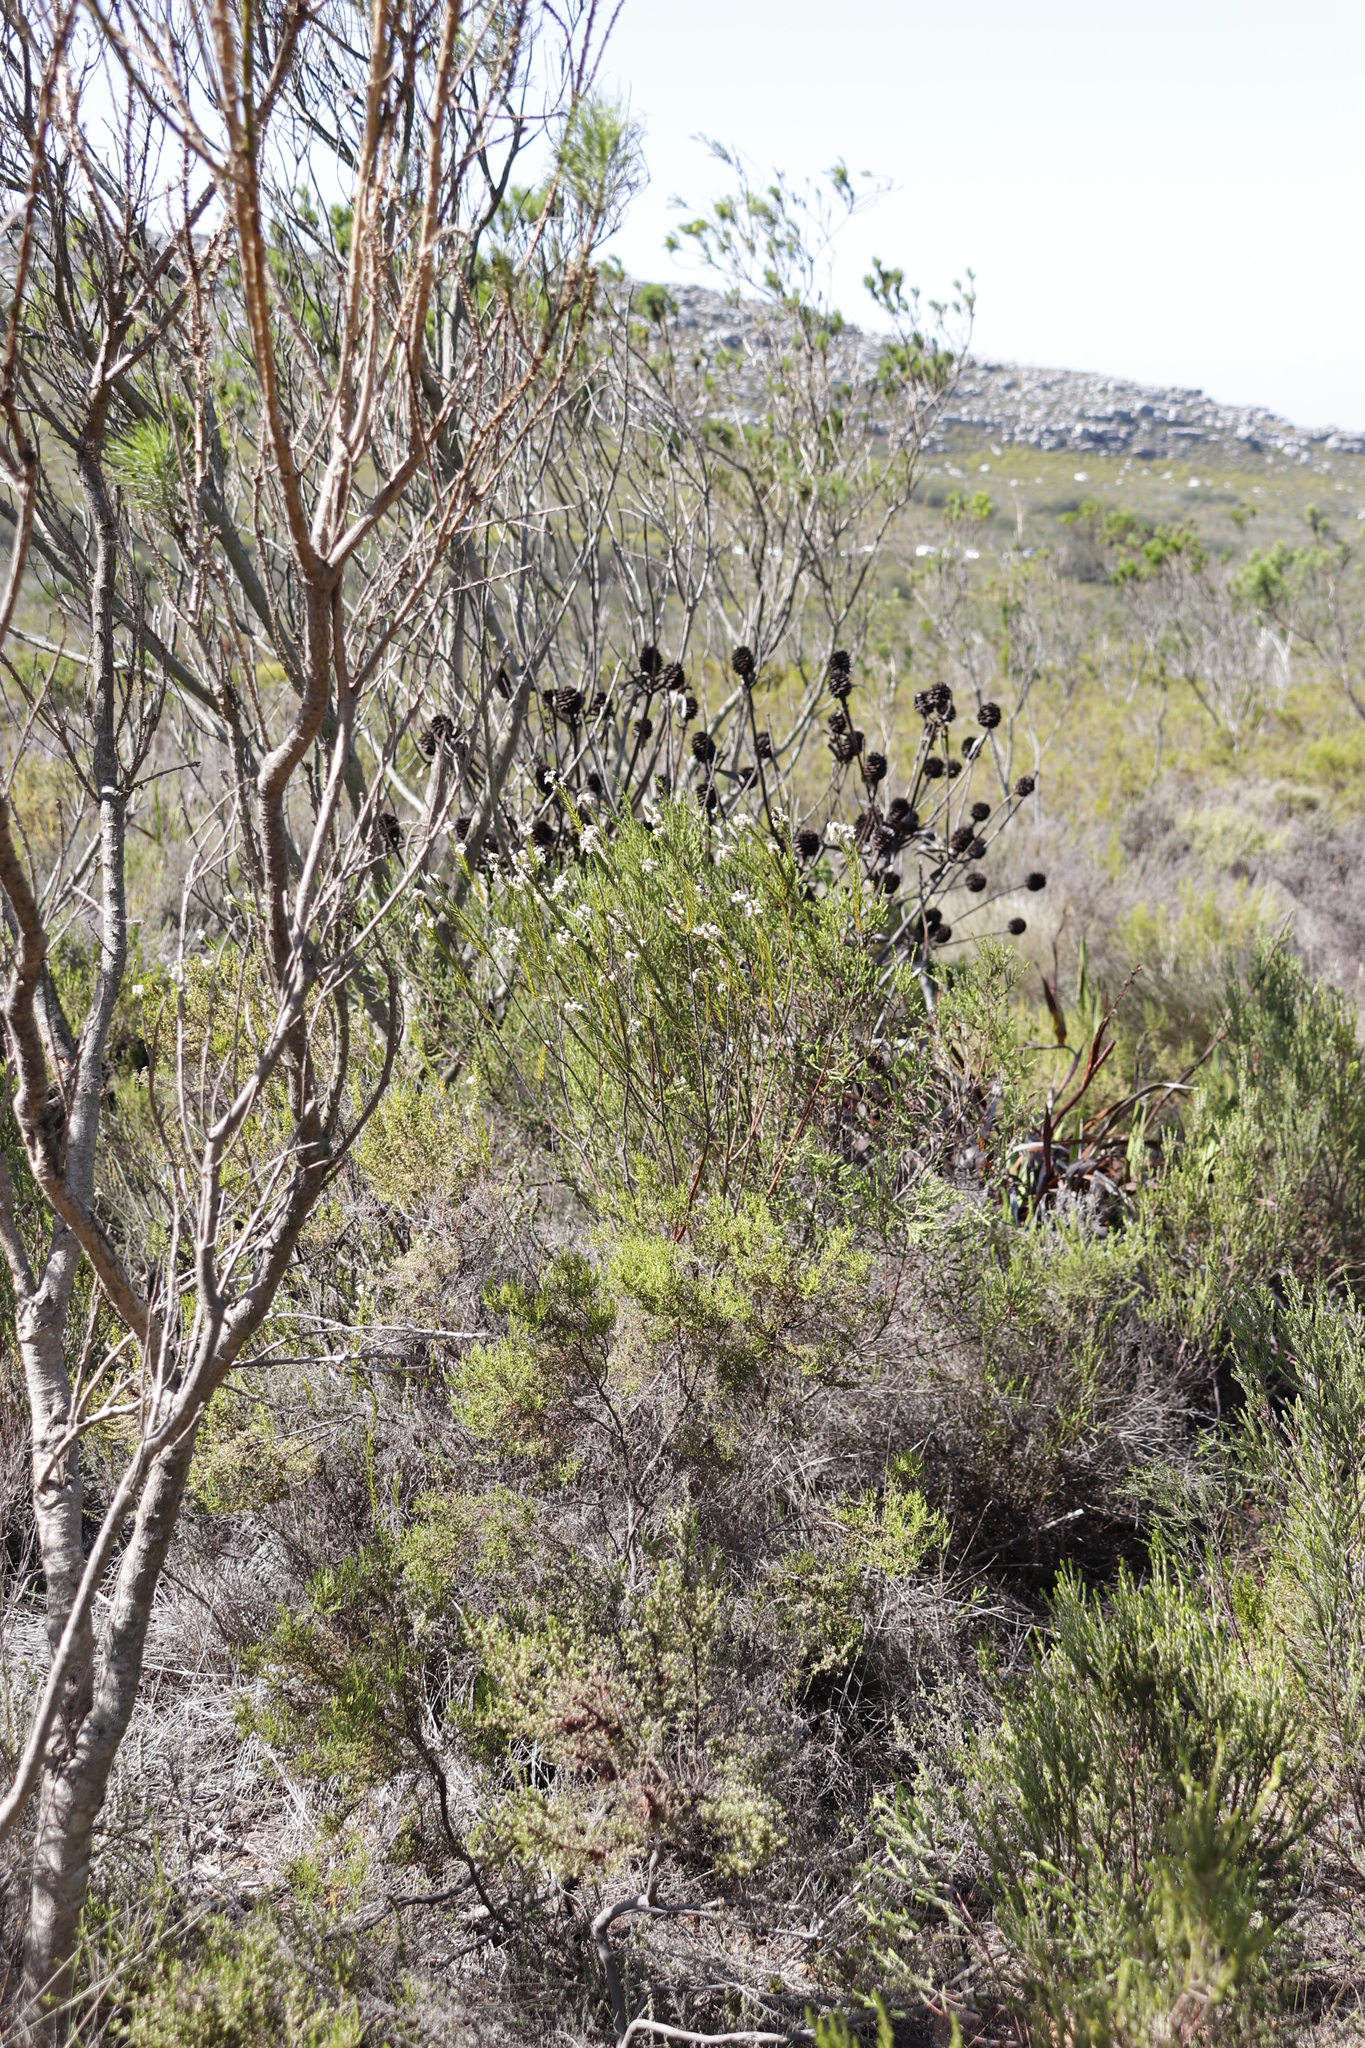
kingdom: Plantae
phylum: Tracheophyta
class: Magnoliopsida
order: Malvales
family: Thymelaeaceae
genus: Struthiola
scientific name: Struthiola ciliata
